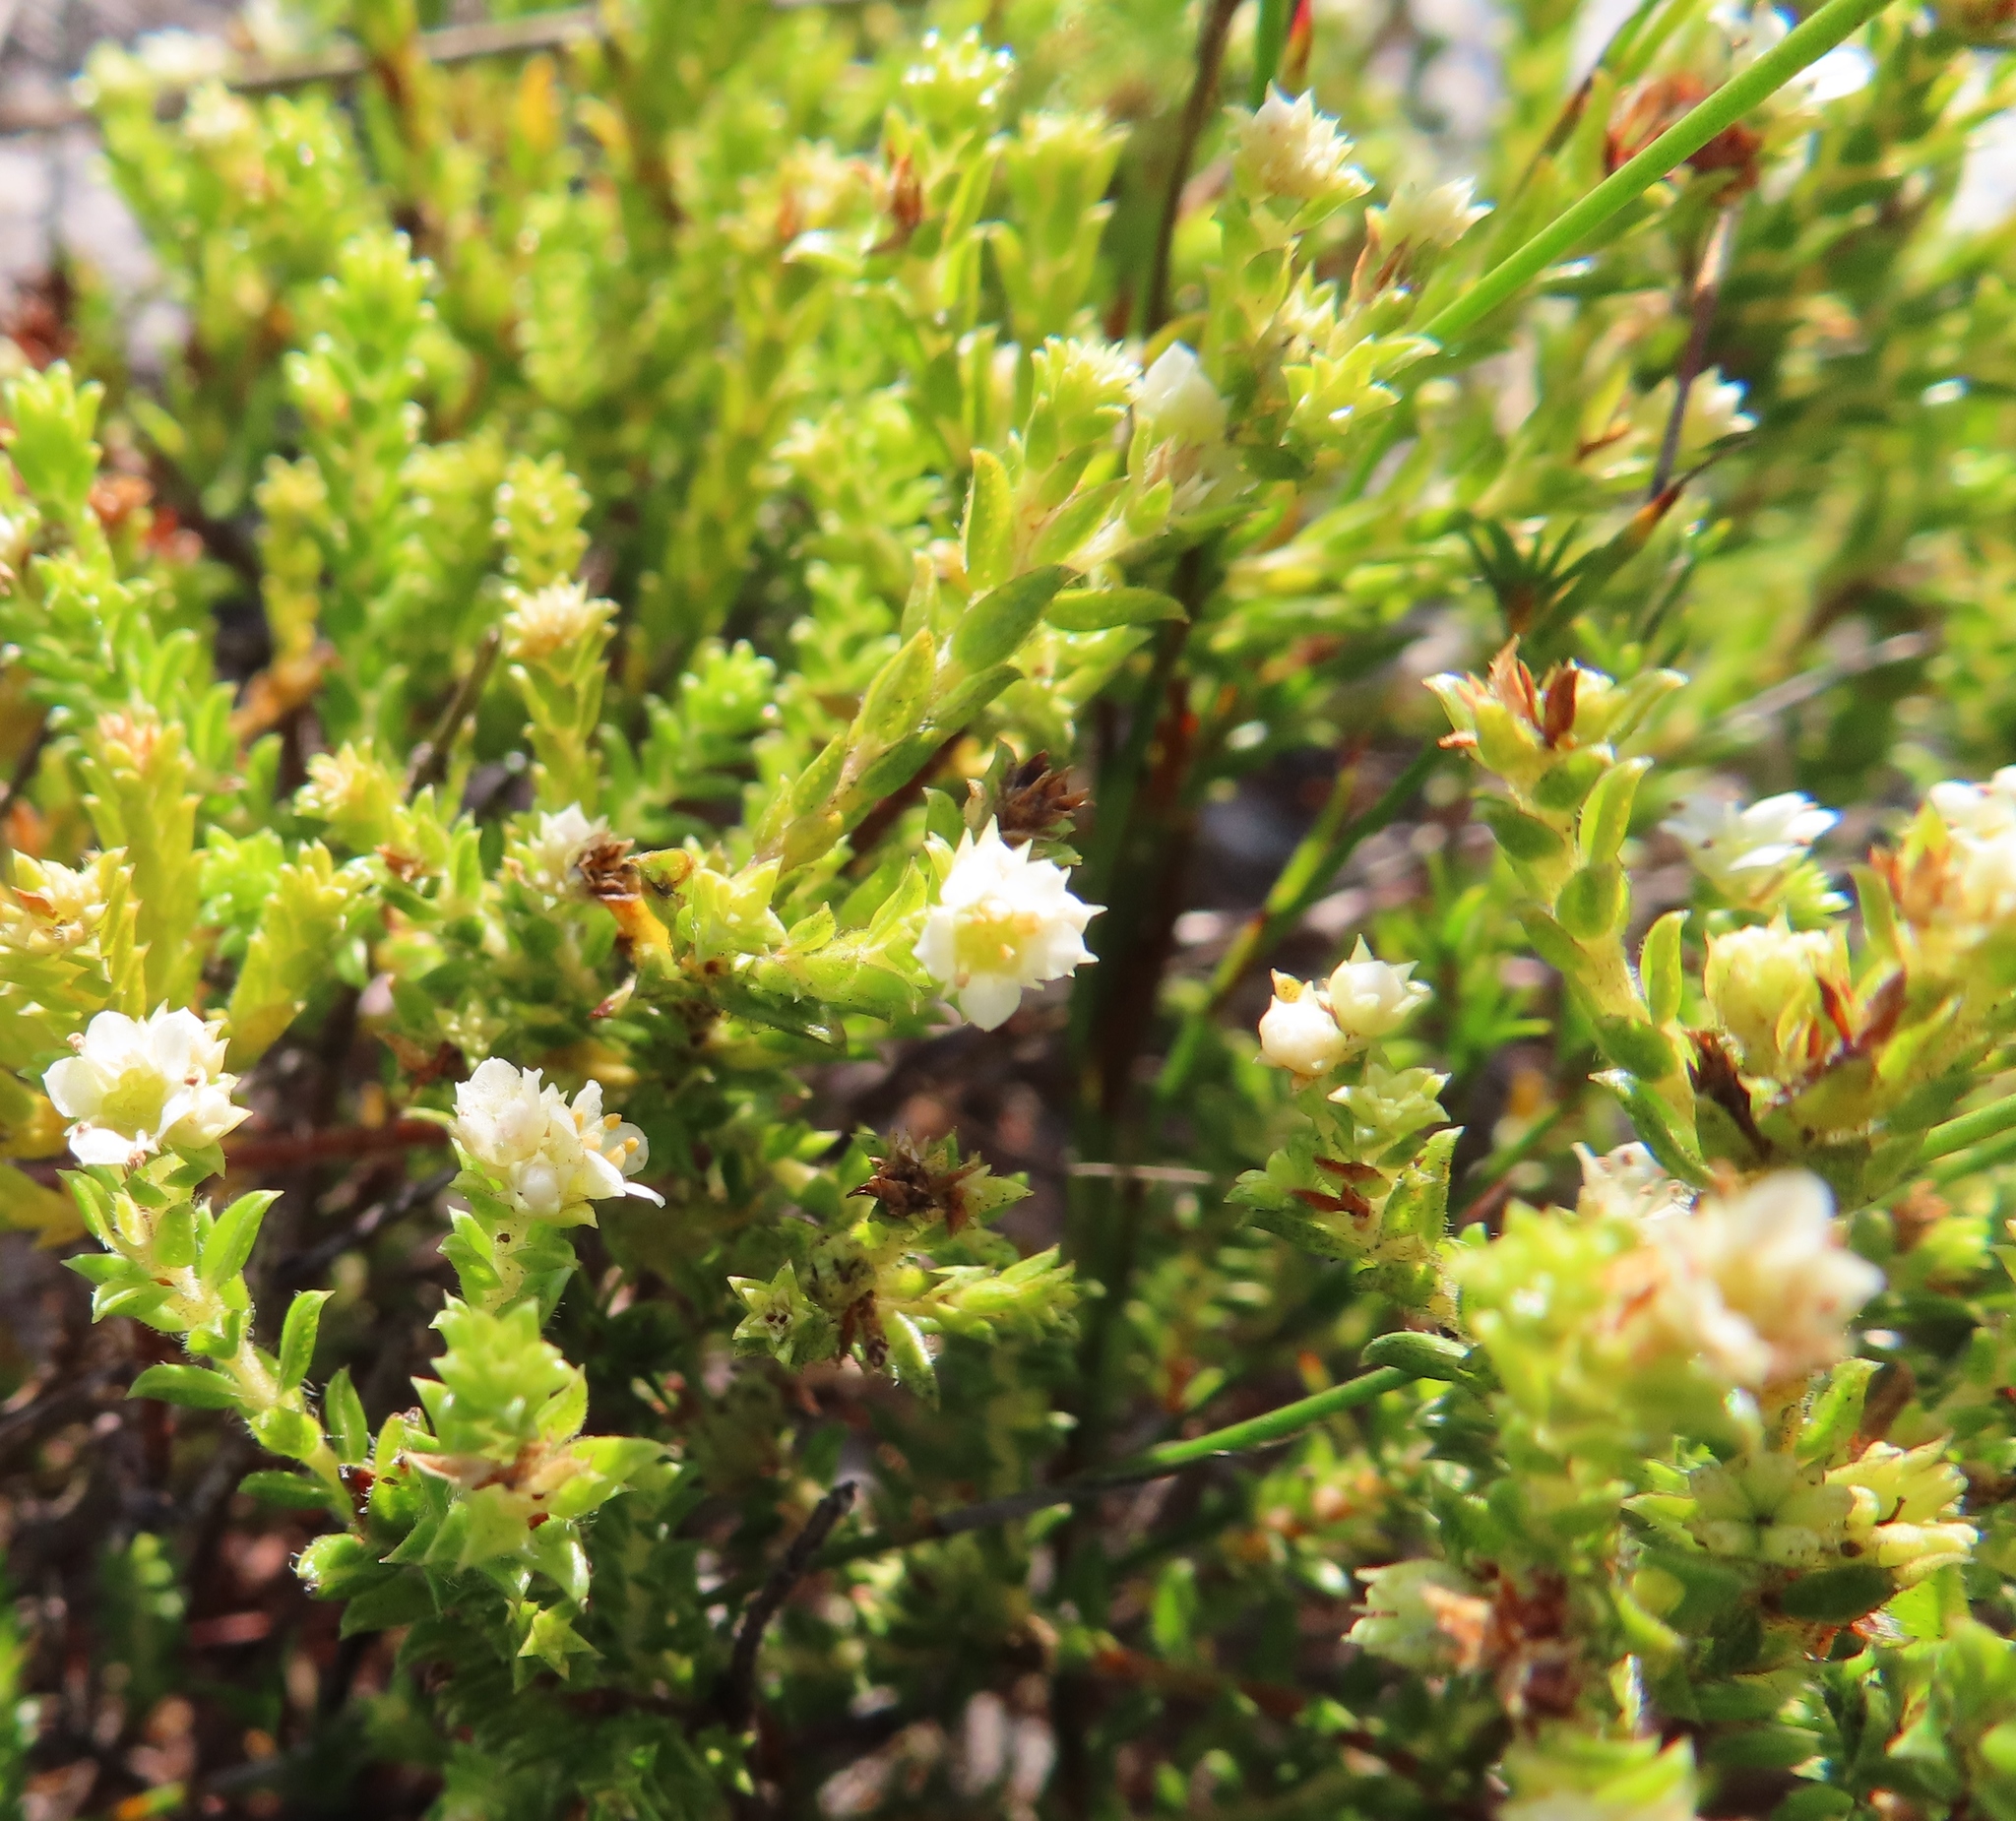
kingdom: Plantae
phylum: Tracheophyta
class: Magnoliopsida
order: Sapindales
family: Rutaceae
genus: Diosma
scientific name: Diosma haelkraalensis
